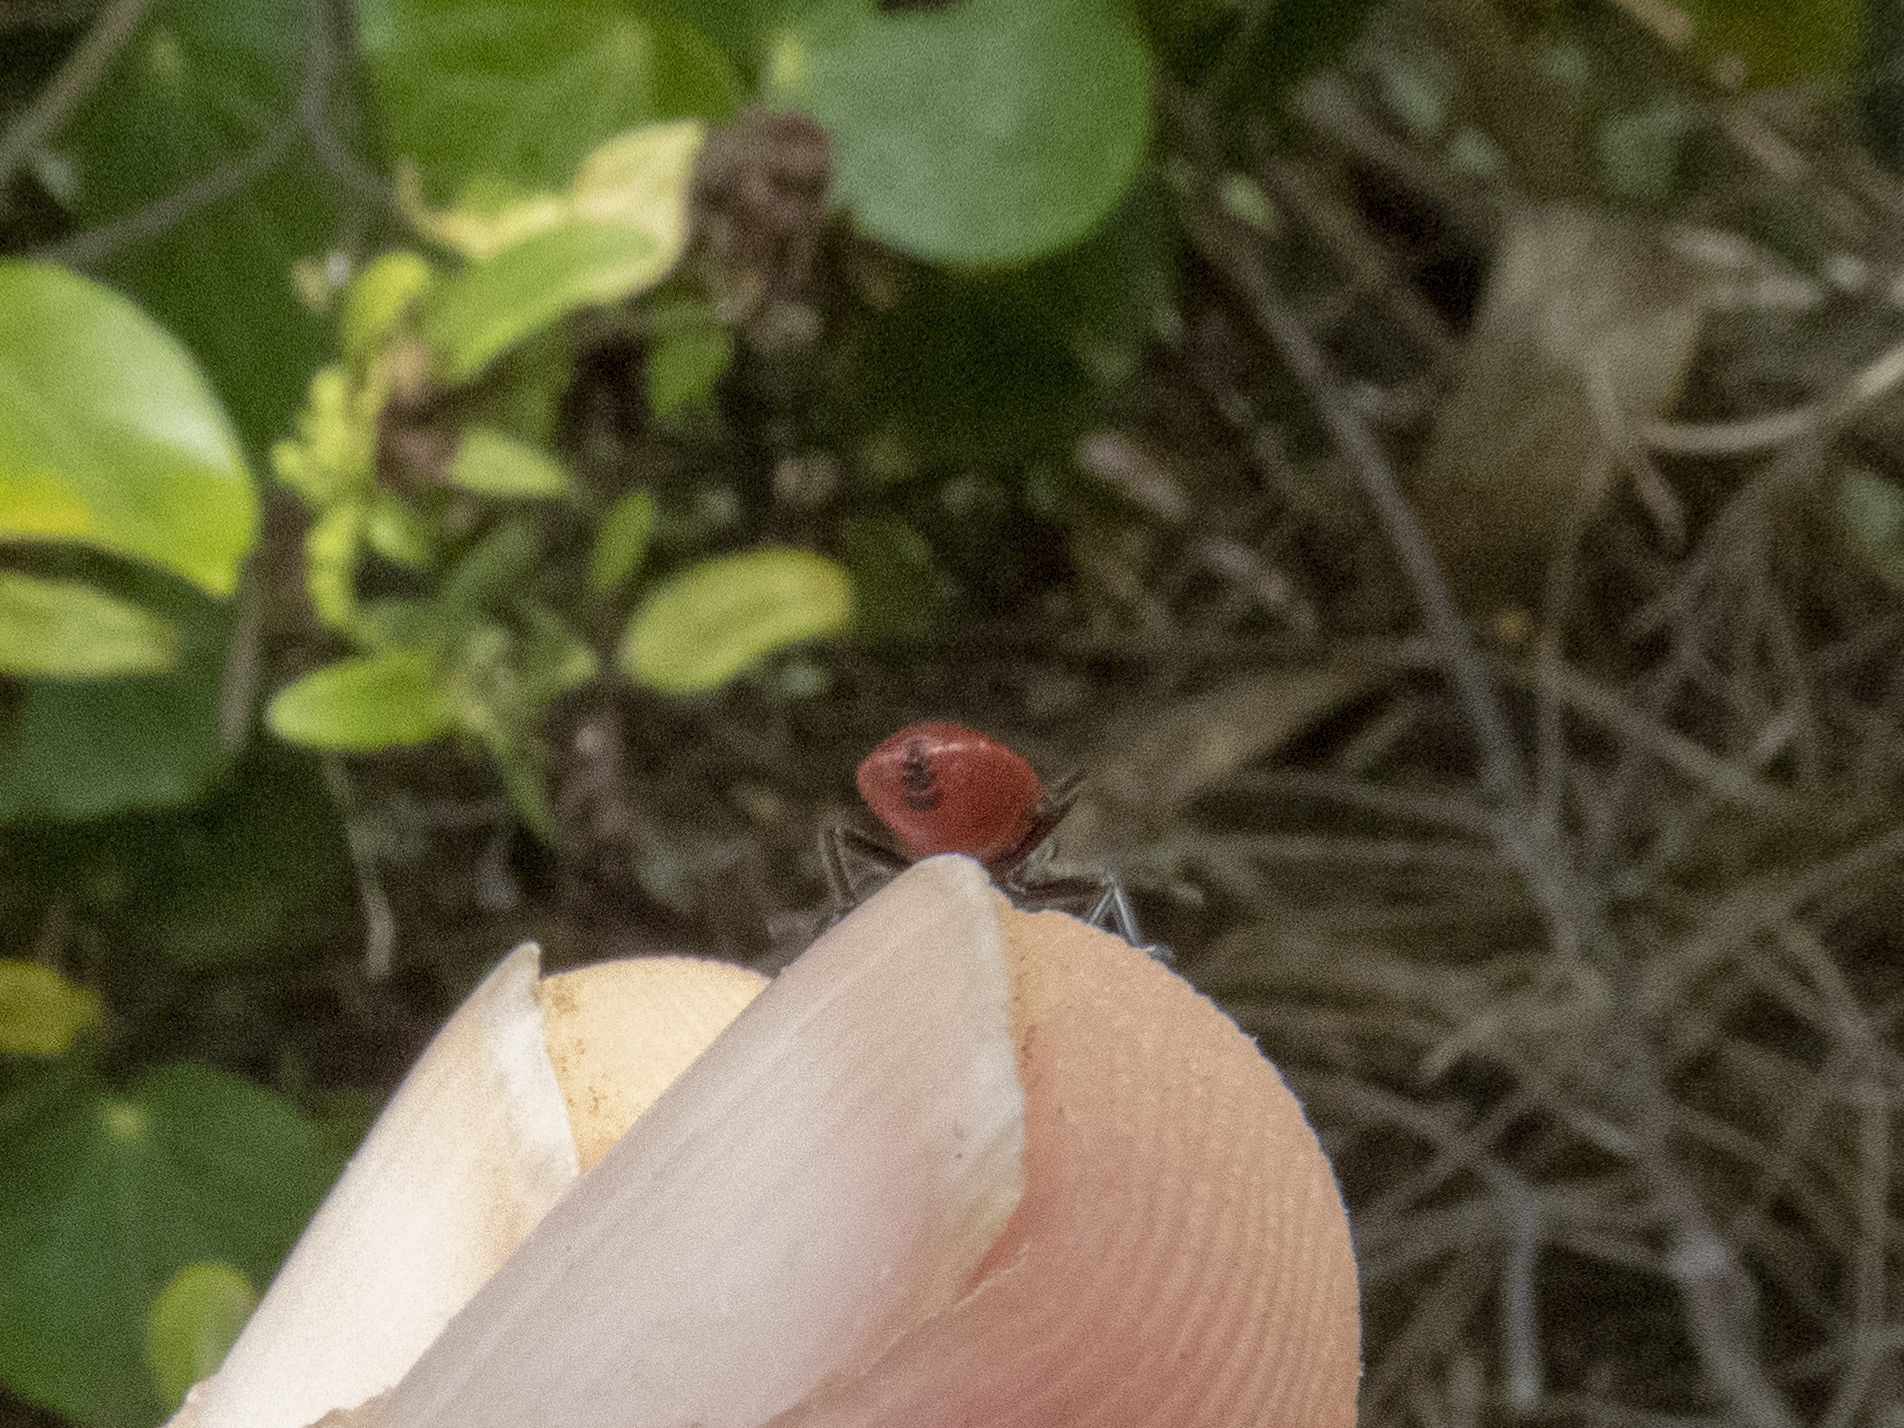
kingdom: Animalia
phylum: Arthropoda
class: Insecta
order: Hemiptera
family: Lygaeidae
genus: Arocatus
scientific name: Arocatus rusticus
